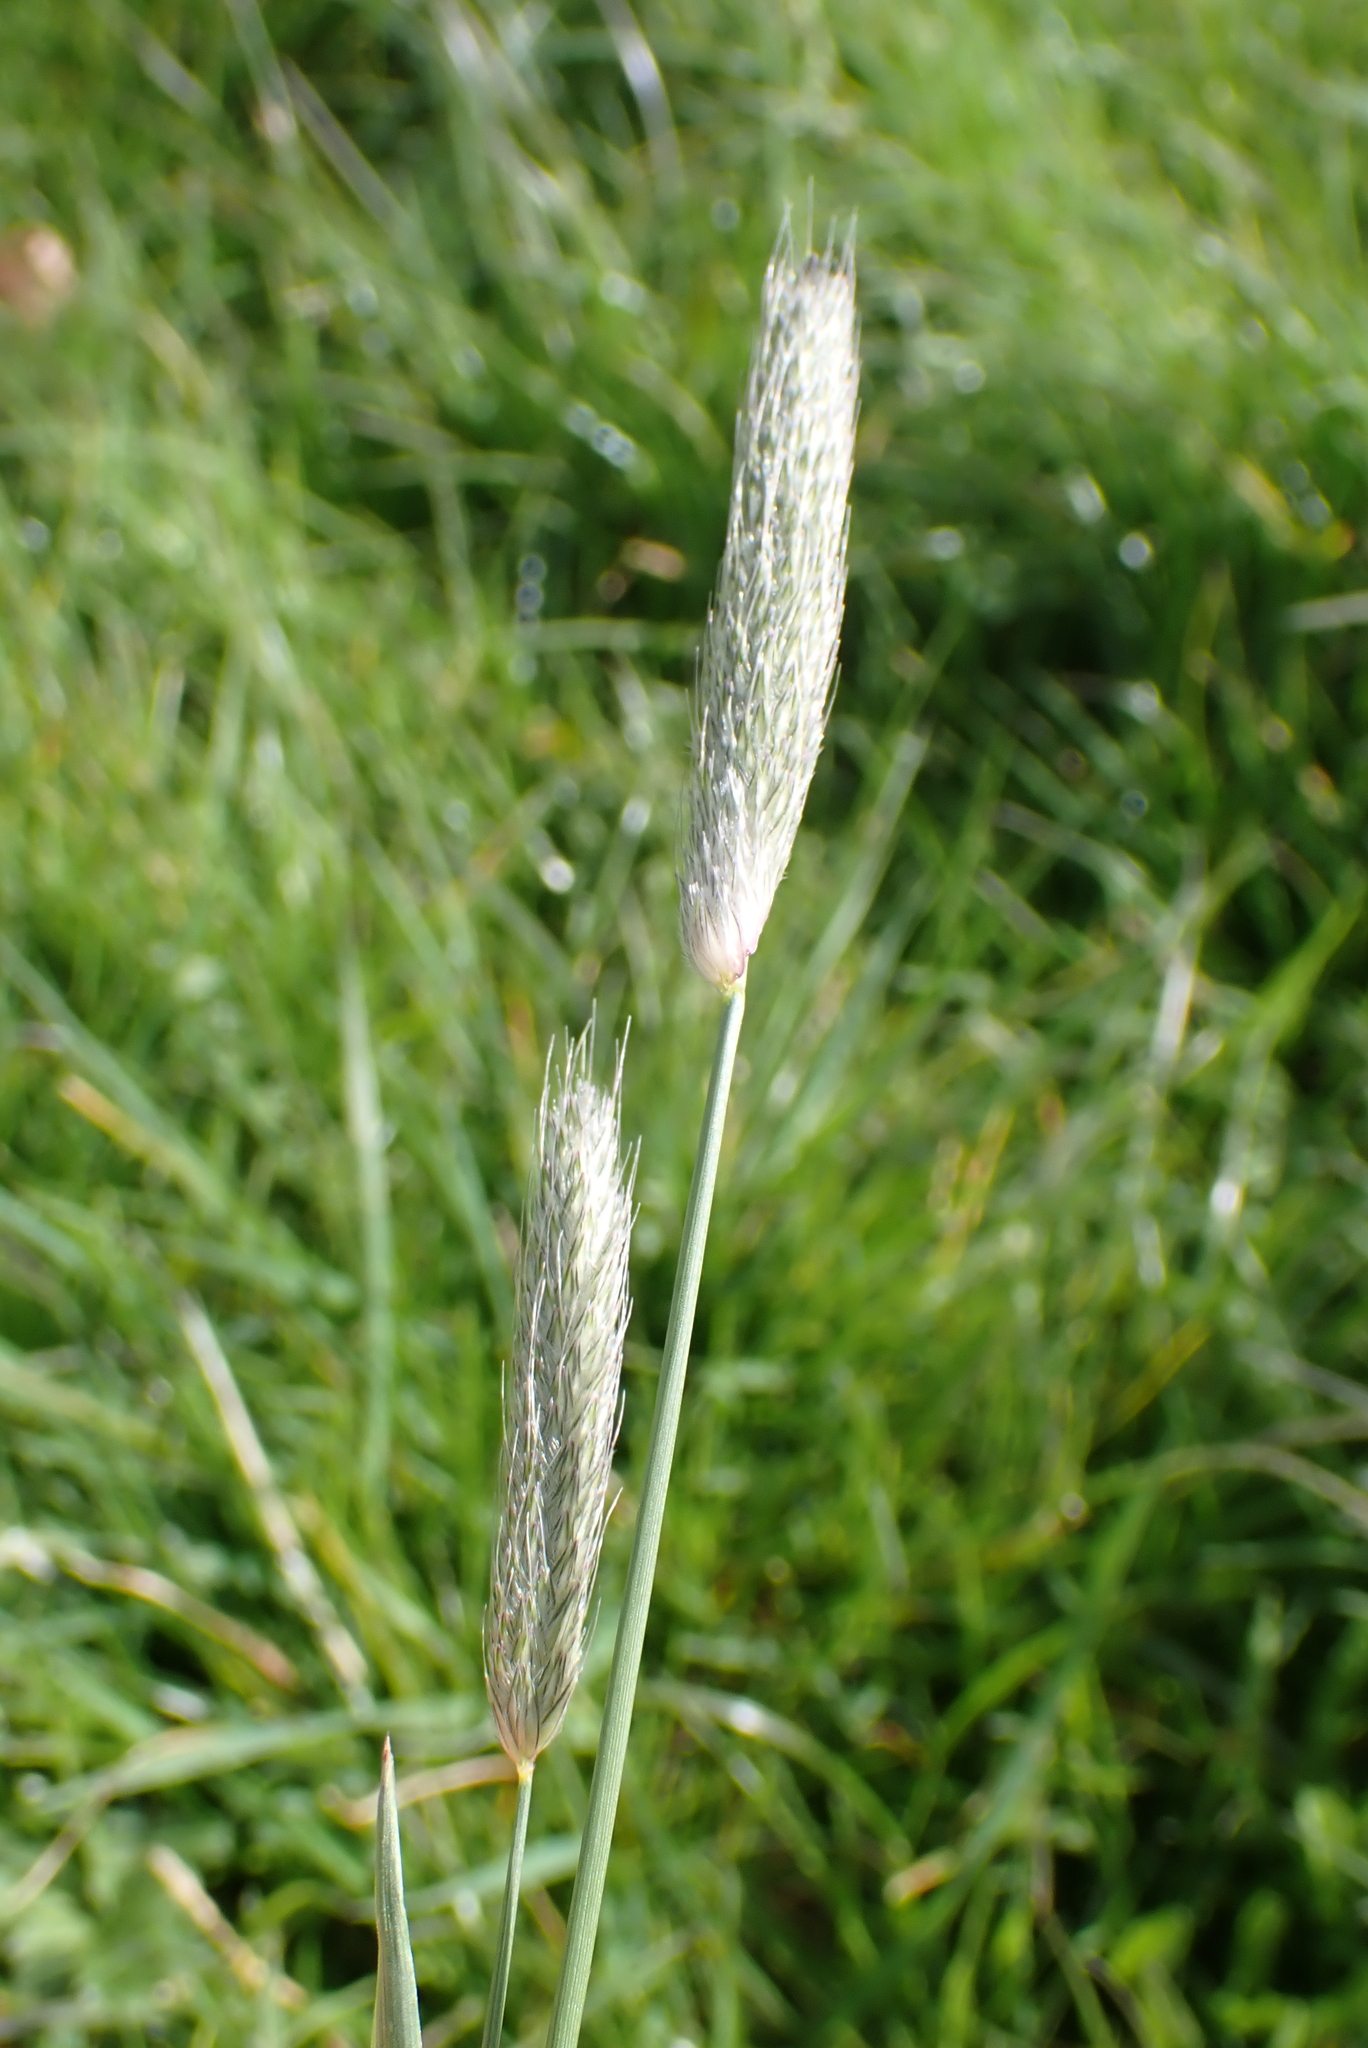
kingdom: Plantae
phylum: Tracheophyta
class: Liliopsida
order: Poales
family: Poaceae
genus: Alopecurus
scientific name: Alopecurus pratensis
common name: Meadow foxtail
